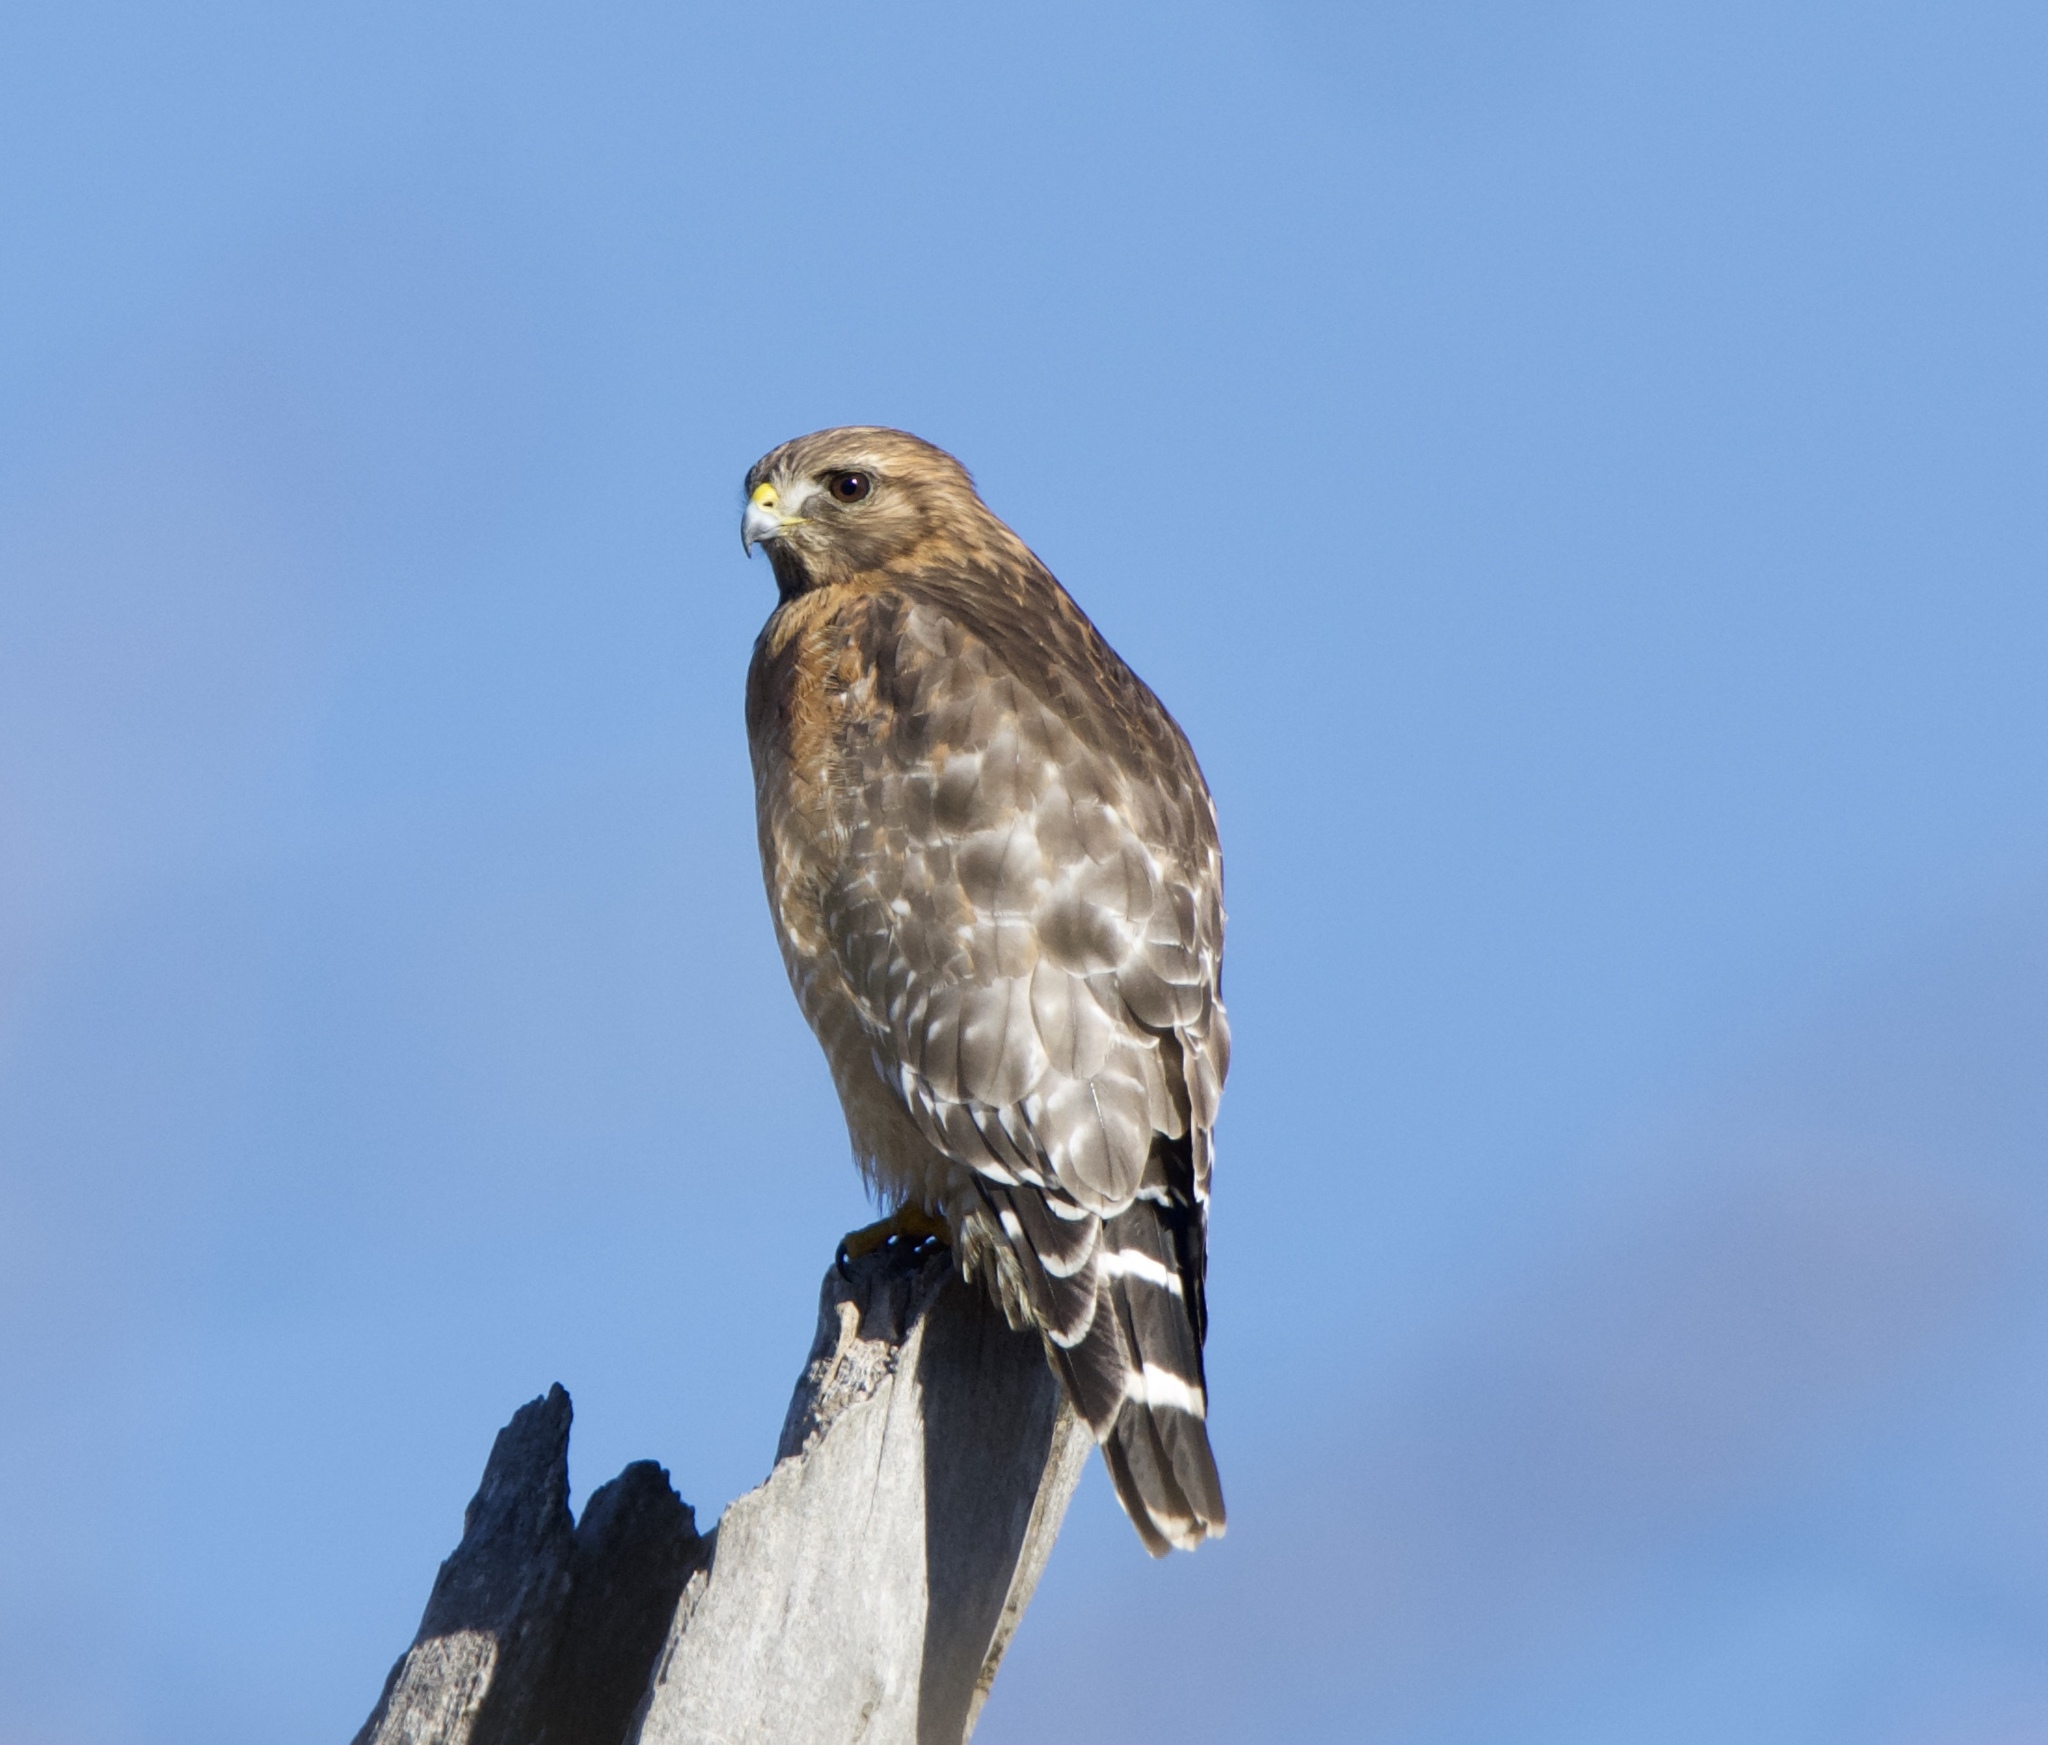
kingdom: Animalia
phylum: Chordata
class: Aves
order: Accipitriformes
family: Accipitridae
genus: Buteo
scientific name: Buteo lineatus
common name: Red-shouldered hawk
